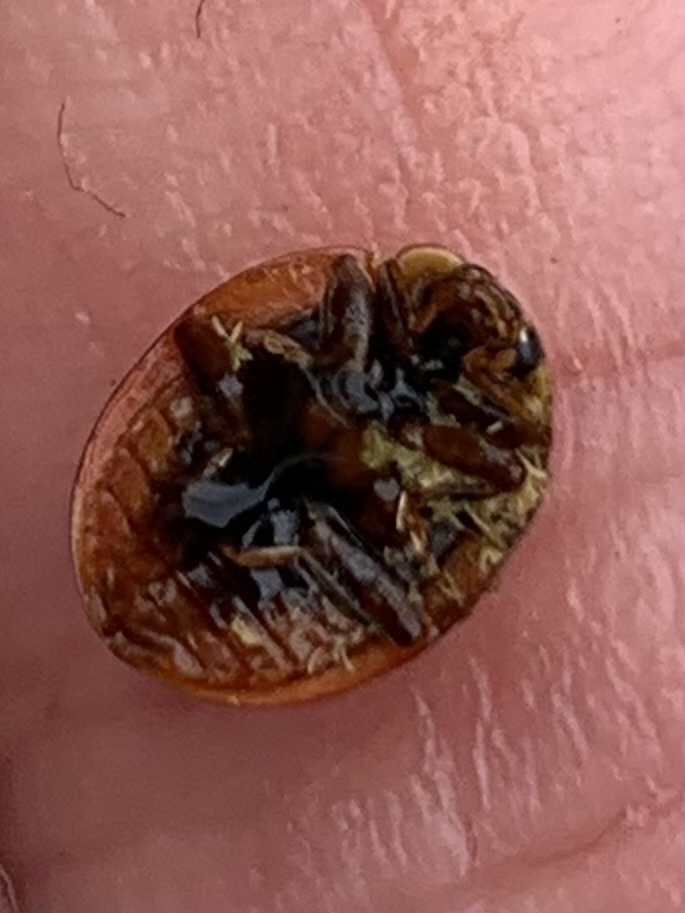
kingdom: Animalia
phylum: Arthropoda
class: Insecta
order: Coleoptera
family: Coccinellidae
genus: Harmonia
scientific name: Harmonia axyridis
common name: Harlequin ladybird
